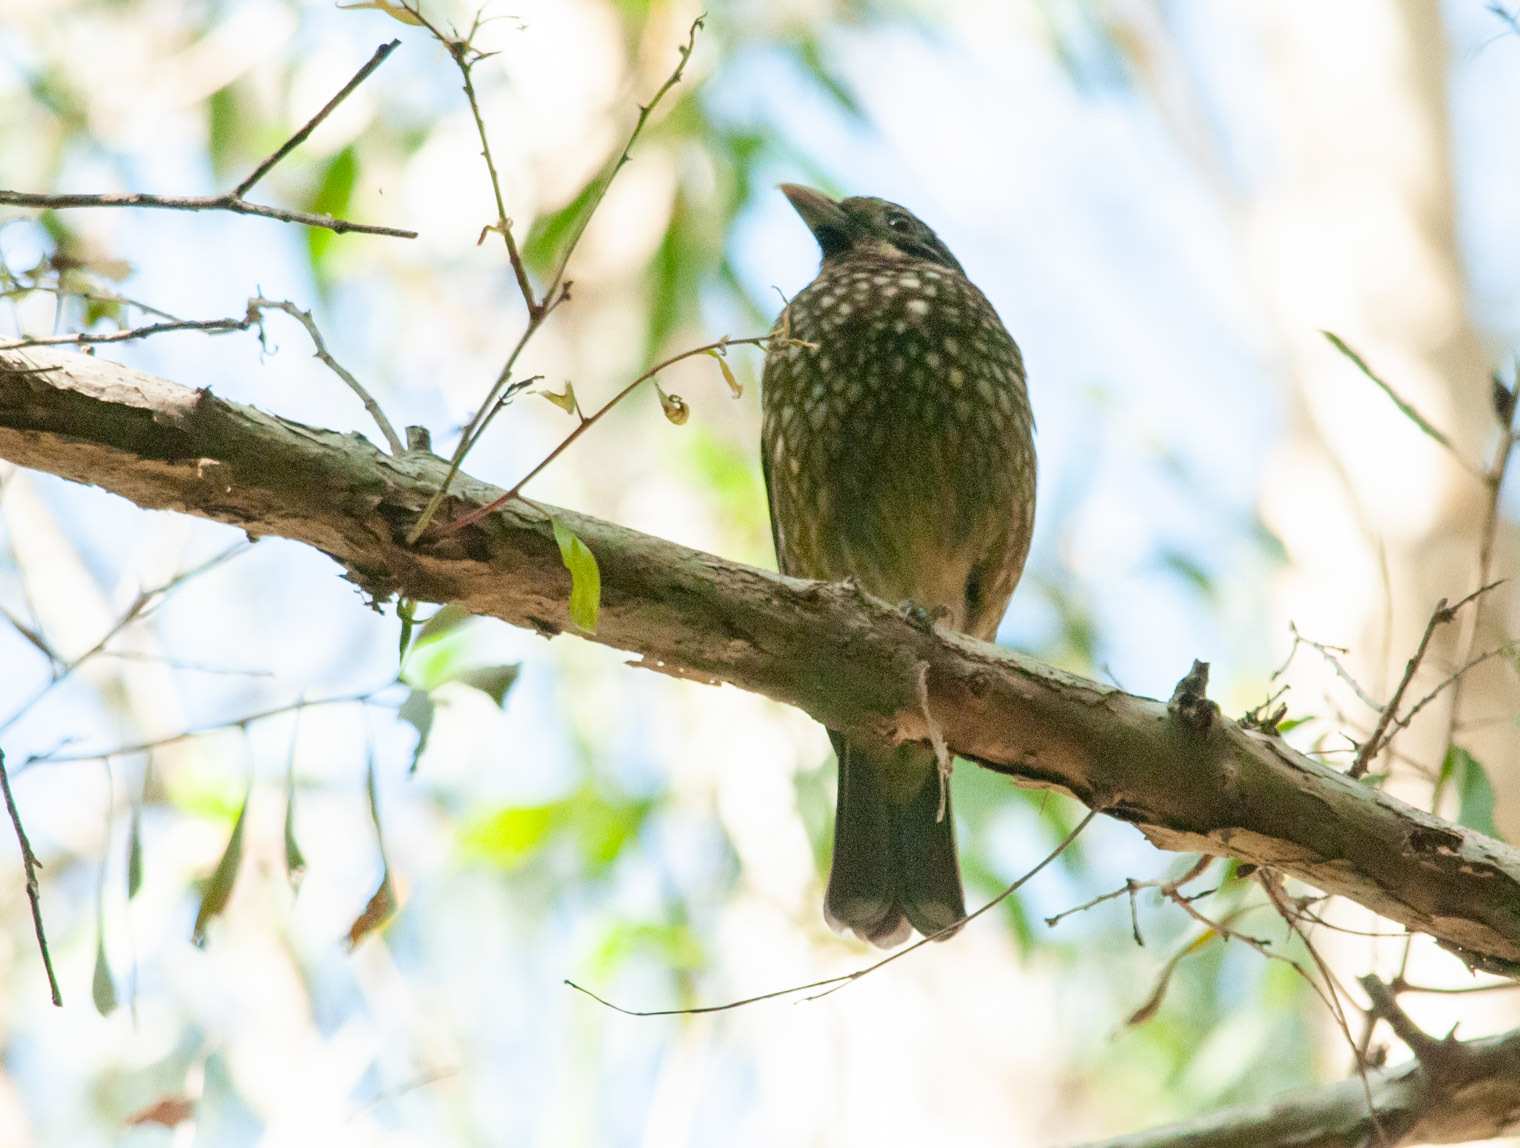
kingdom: Animalia
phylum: Chordata
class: Aves
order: Passeriformes
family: Ptilonorhynchidae
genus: Ailuroedus
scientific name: Ailuroedus maculosus
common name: Spotted catbird
